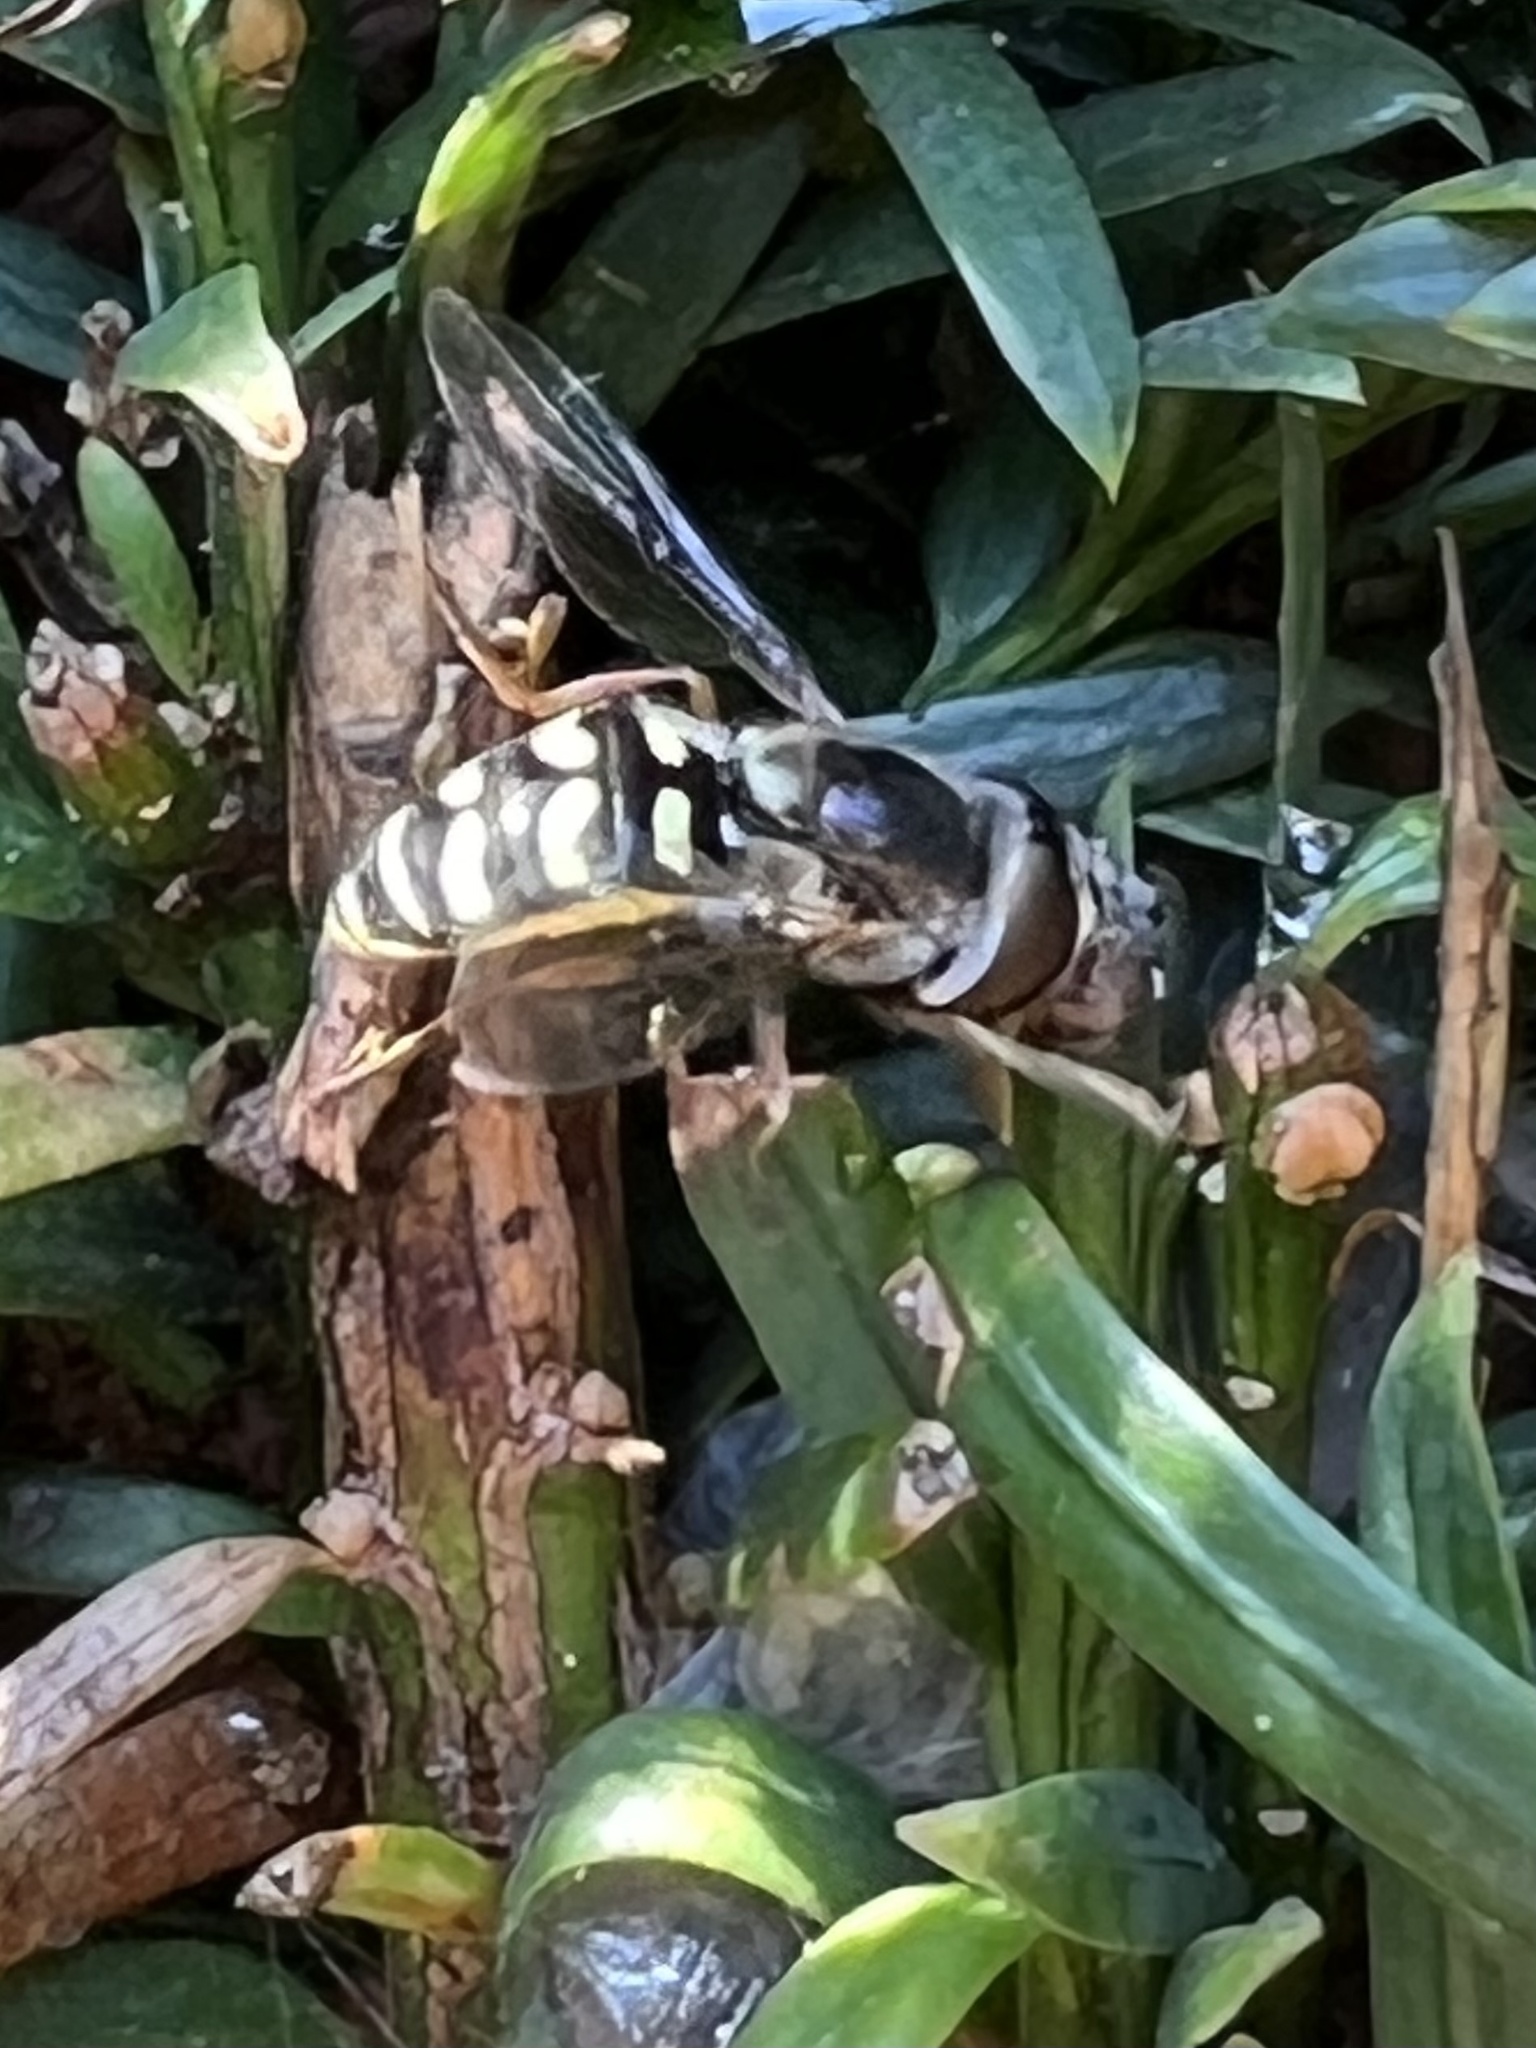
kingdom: Animalia
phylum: Arthropoda
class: Insecta
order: Diptera
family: Syrphidae
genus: Eupeodes
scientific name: Eupeodes volucris
